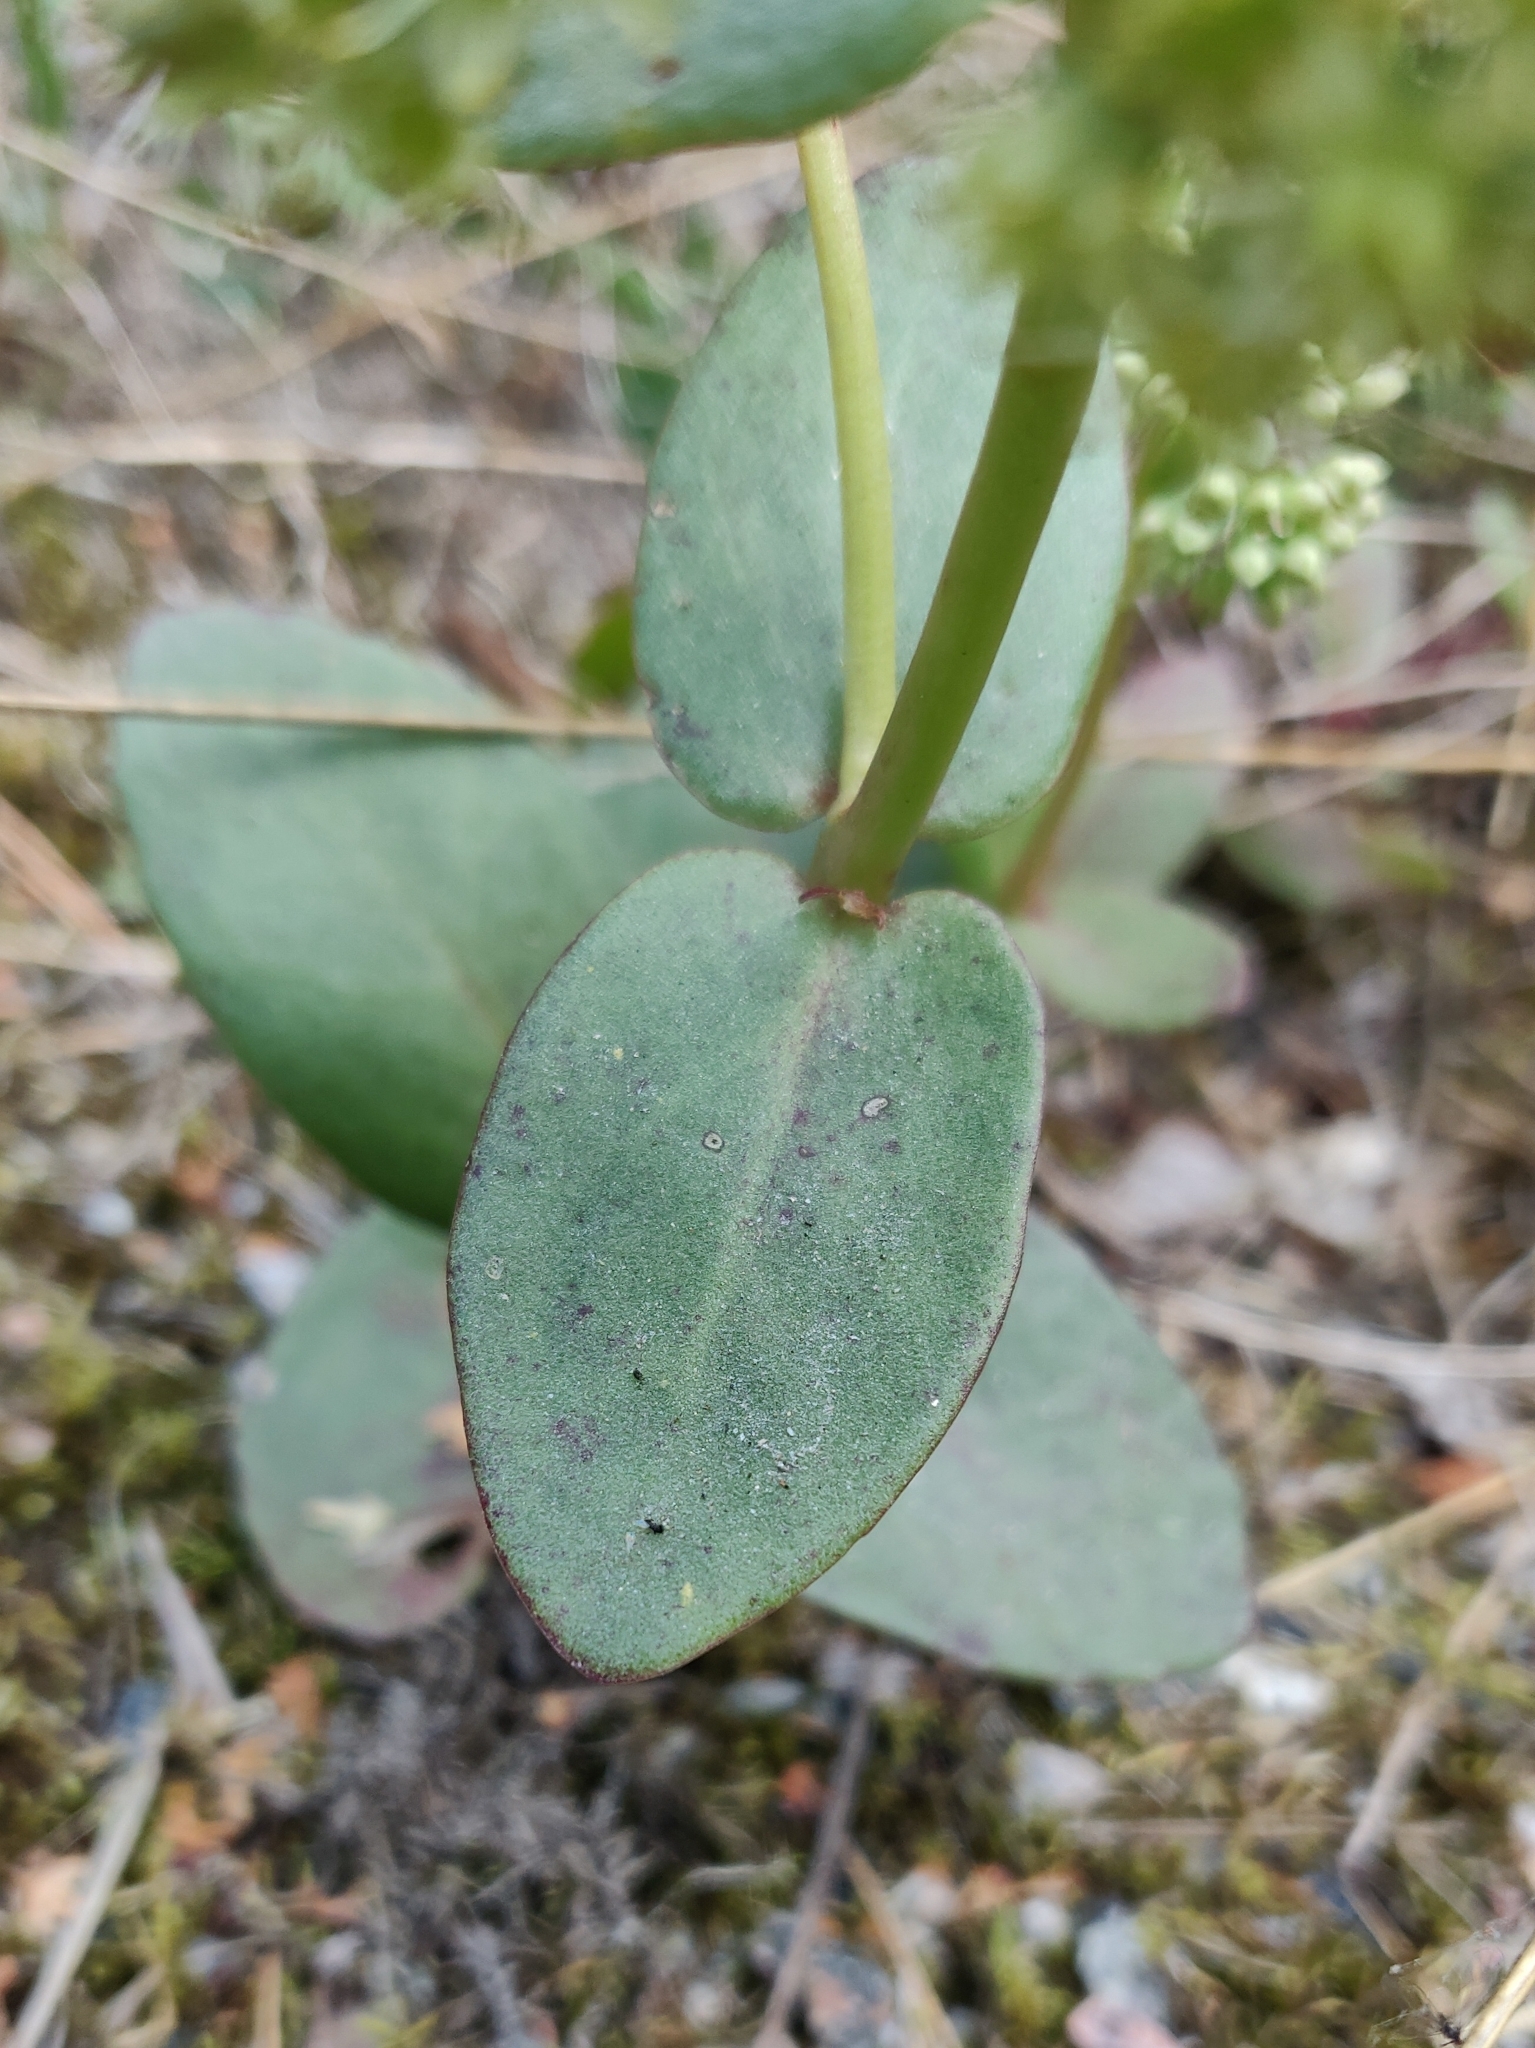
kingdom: Plantae
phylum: Tracheophyta
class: Magnoliopsida
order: Saxifragales
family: Crassulaceae
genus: Hylotelephium
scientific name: Hylotelephium maximum
